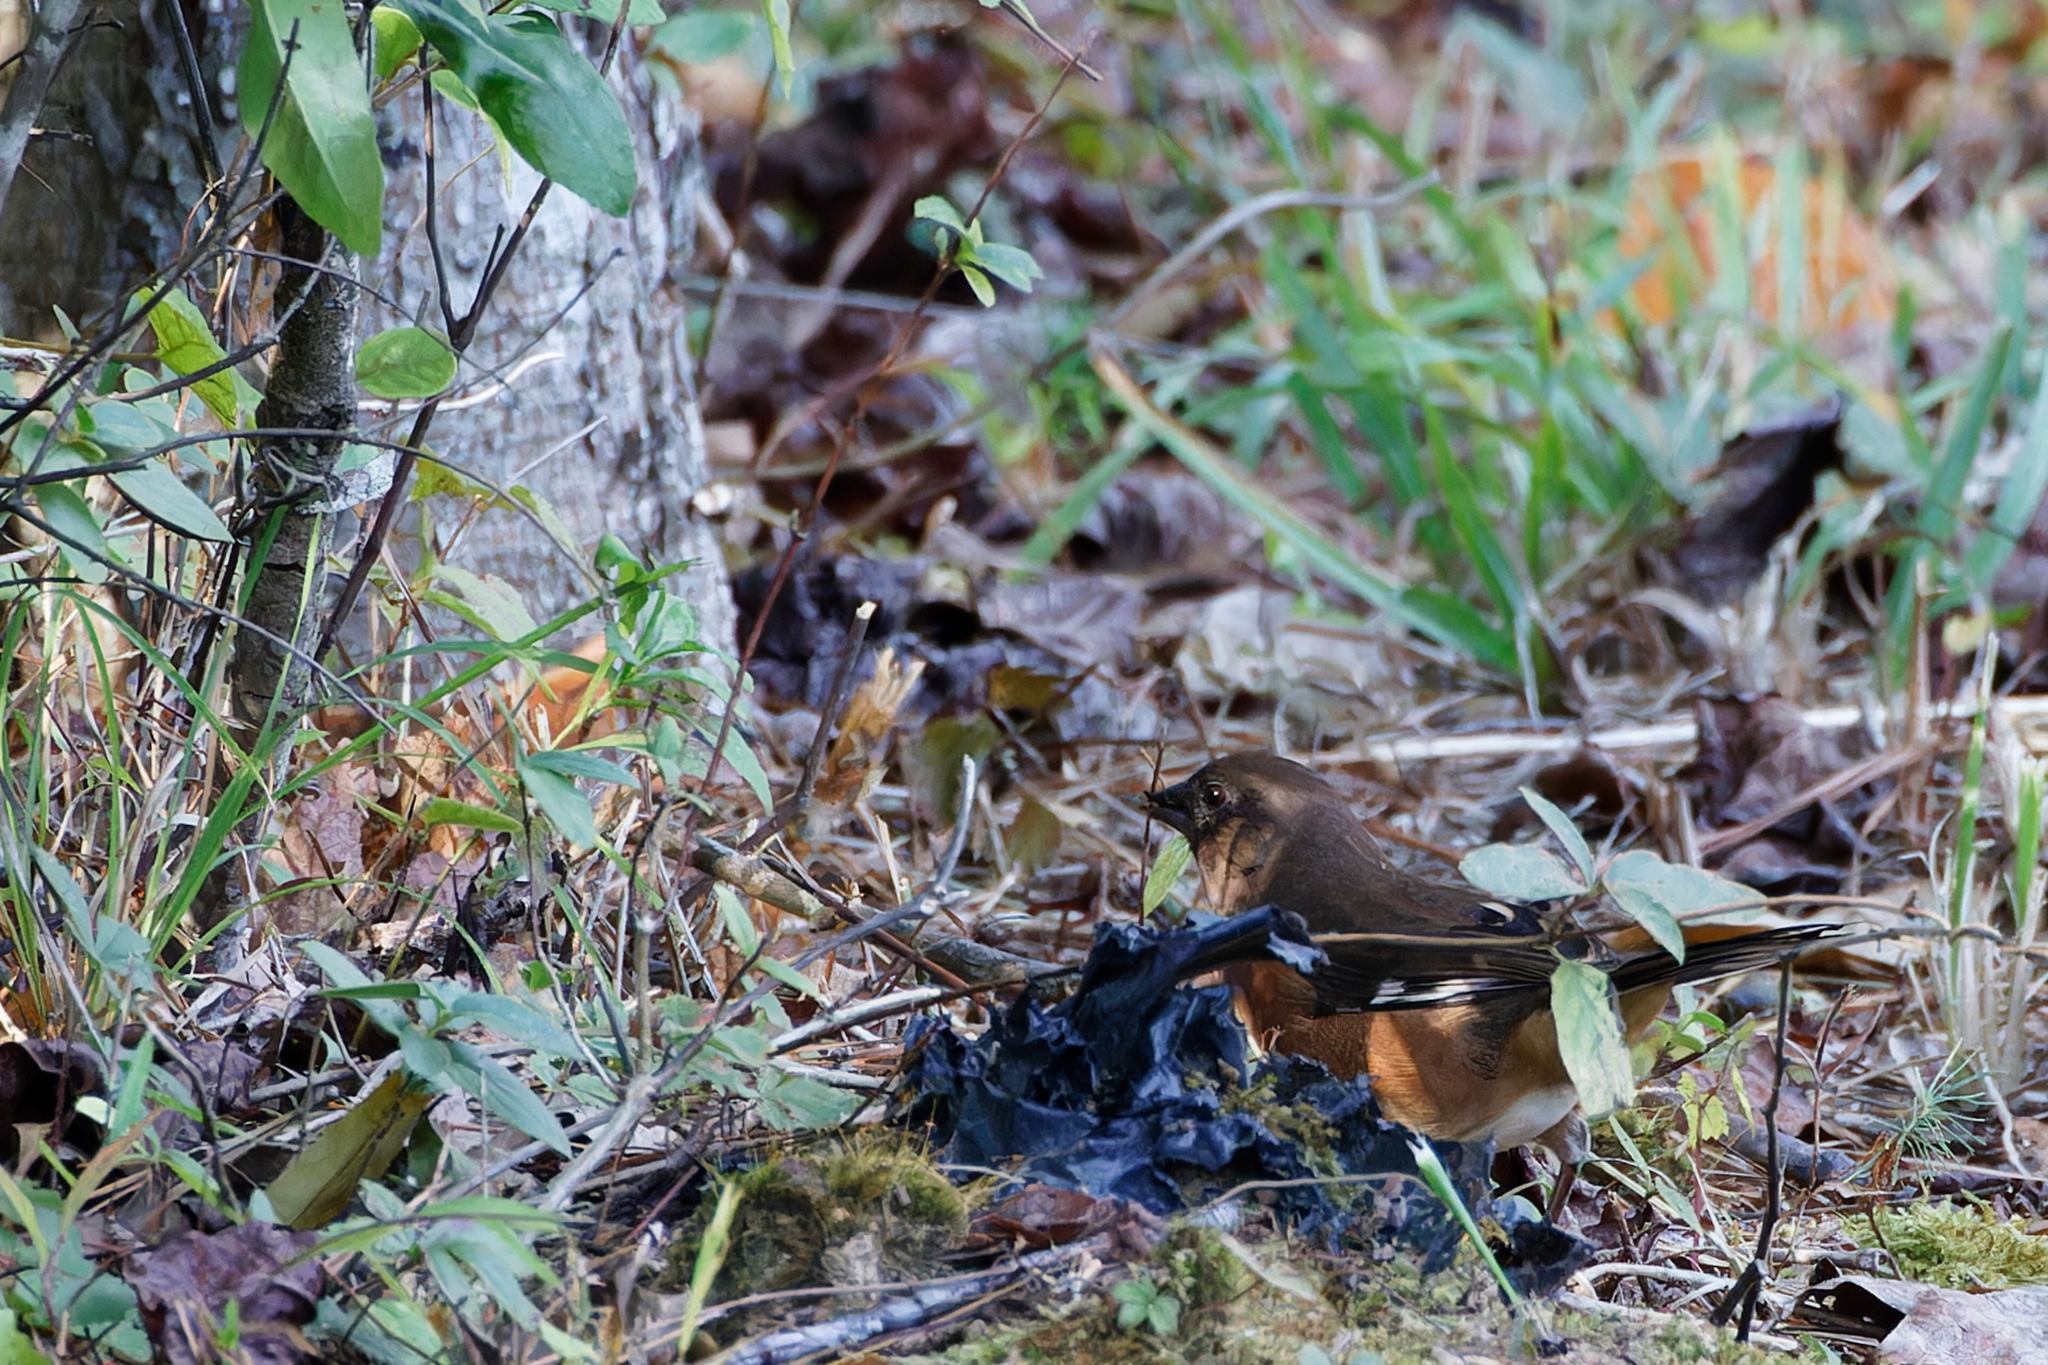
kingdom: Animalia
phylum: Chordata
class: Aves
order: Passeriformes
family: Passerellidae
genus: Pipilo
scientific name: Pipilo erythrophthalmus
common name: Eastern towhee
